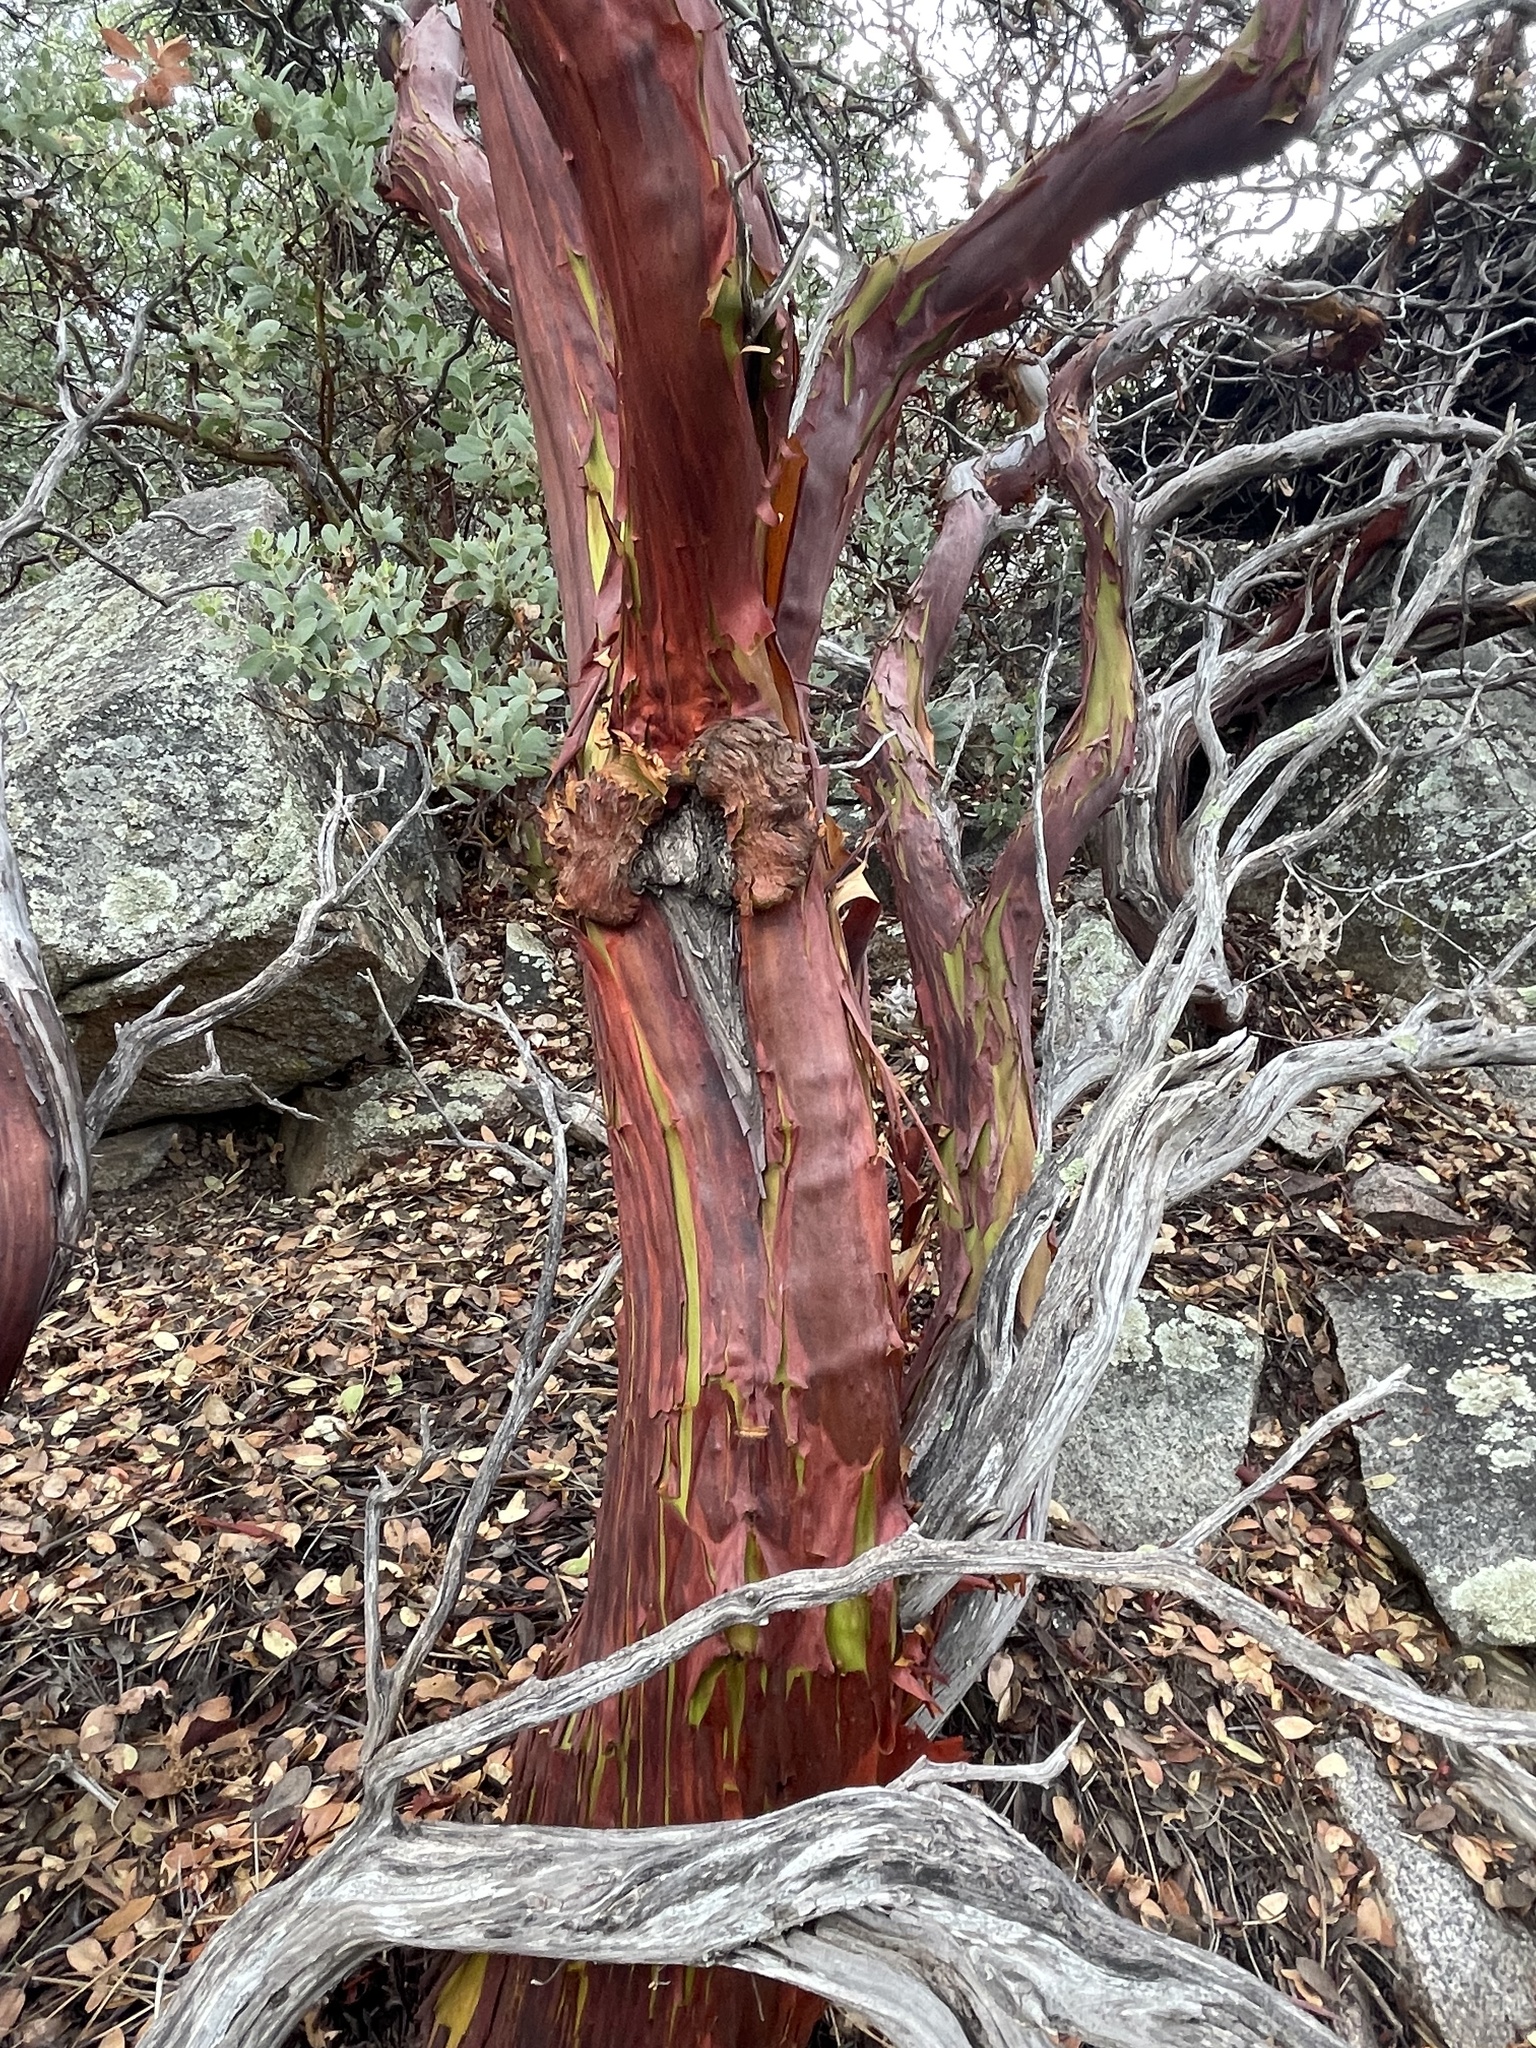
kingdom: Plantae
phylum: Tracheophyta
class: Magnoliopsida
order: Ericales
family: Ericaceae
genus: Arctostaphylos
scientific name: Arctostaphylos pringlei
